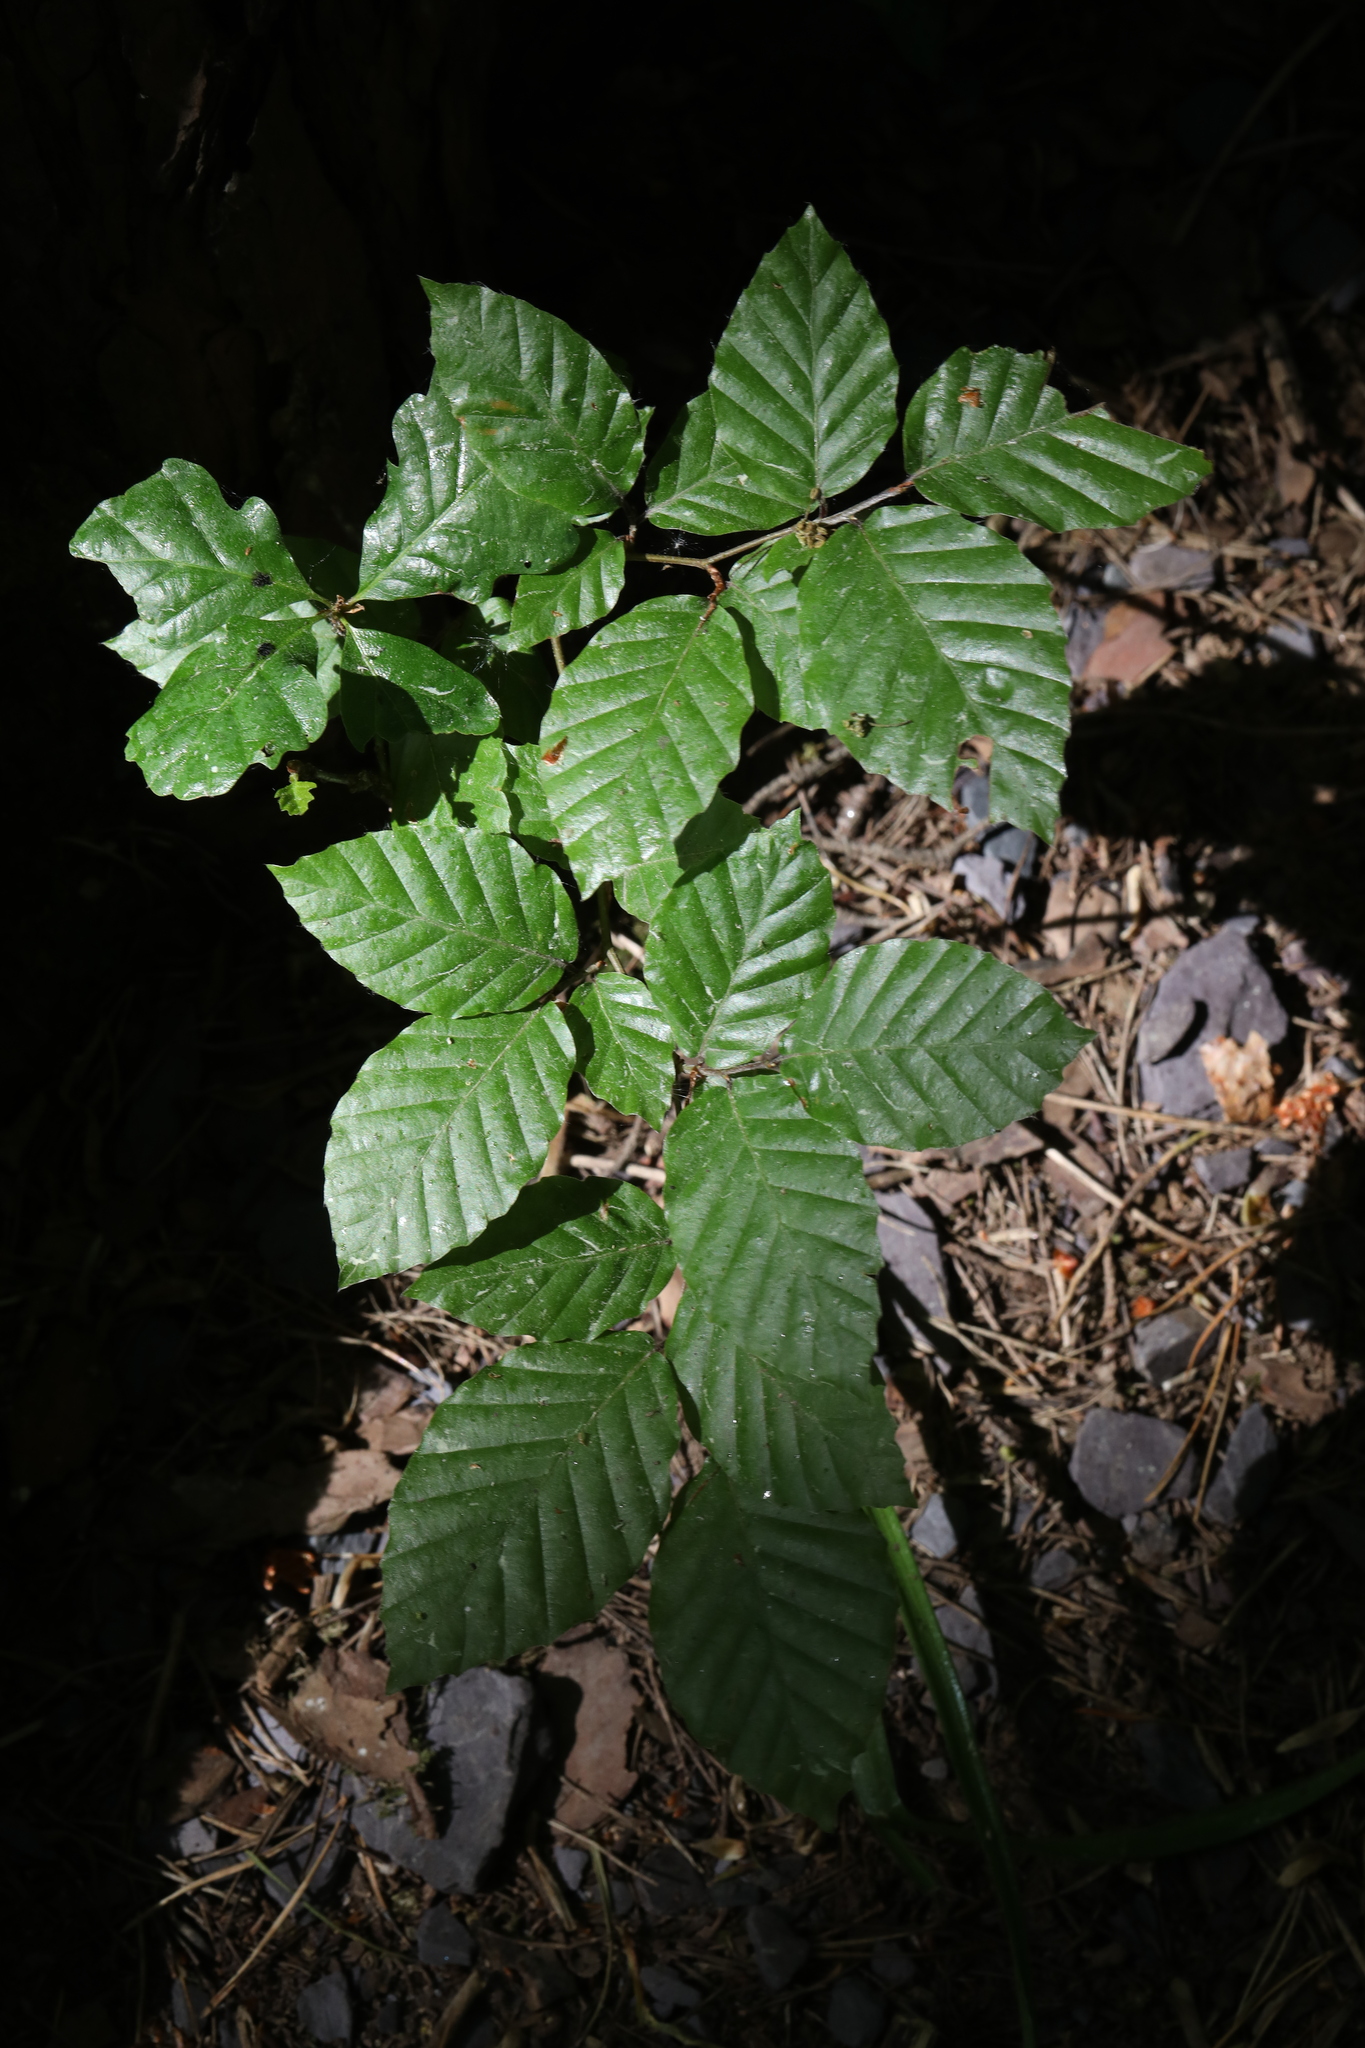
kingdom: Plantae
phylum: Tracheophyta
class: Magnoliopsida
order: Fagales
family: Fagaceae
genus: Fagus
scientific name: Fagus sylvatica
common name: Beech
